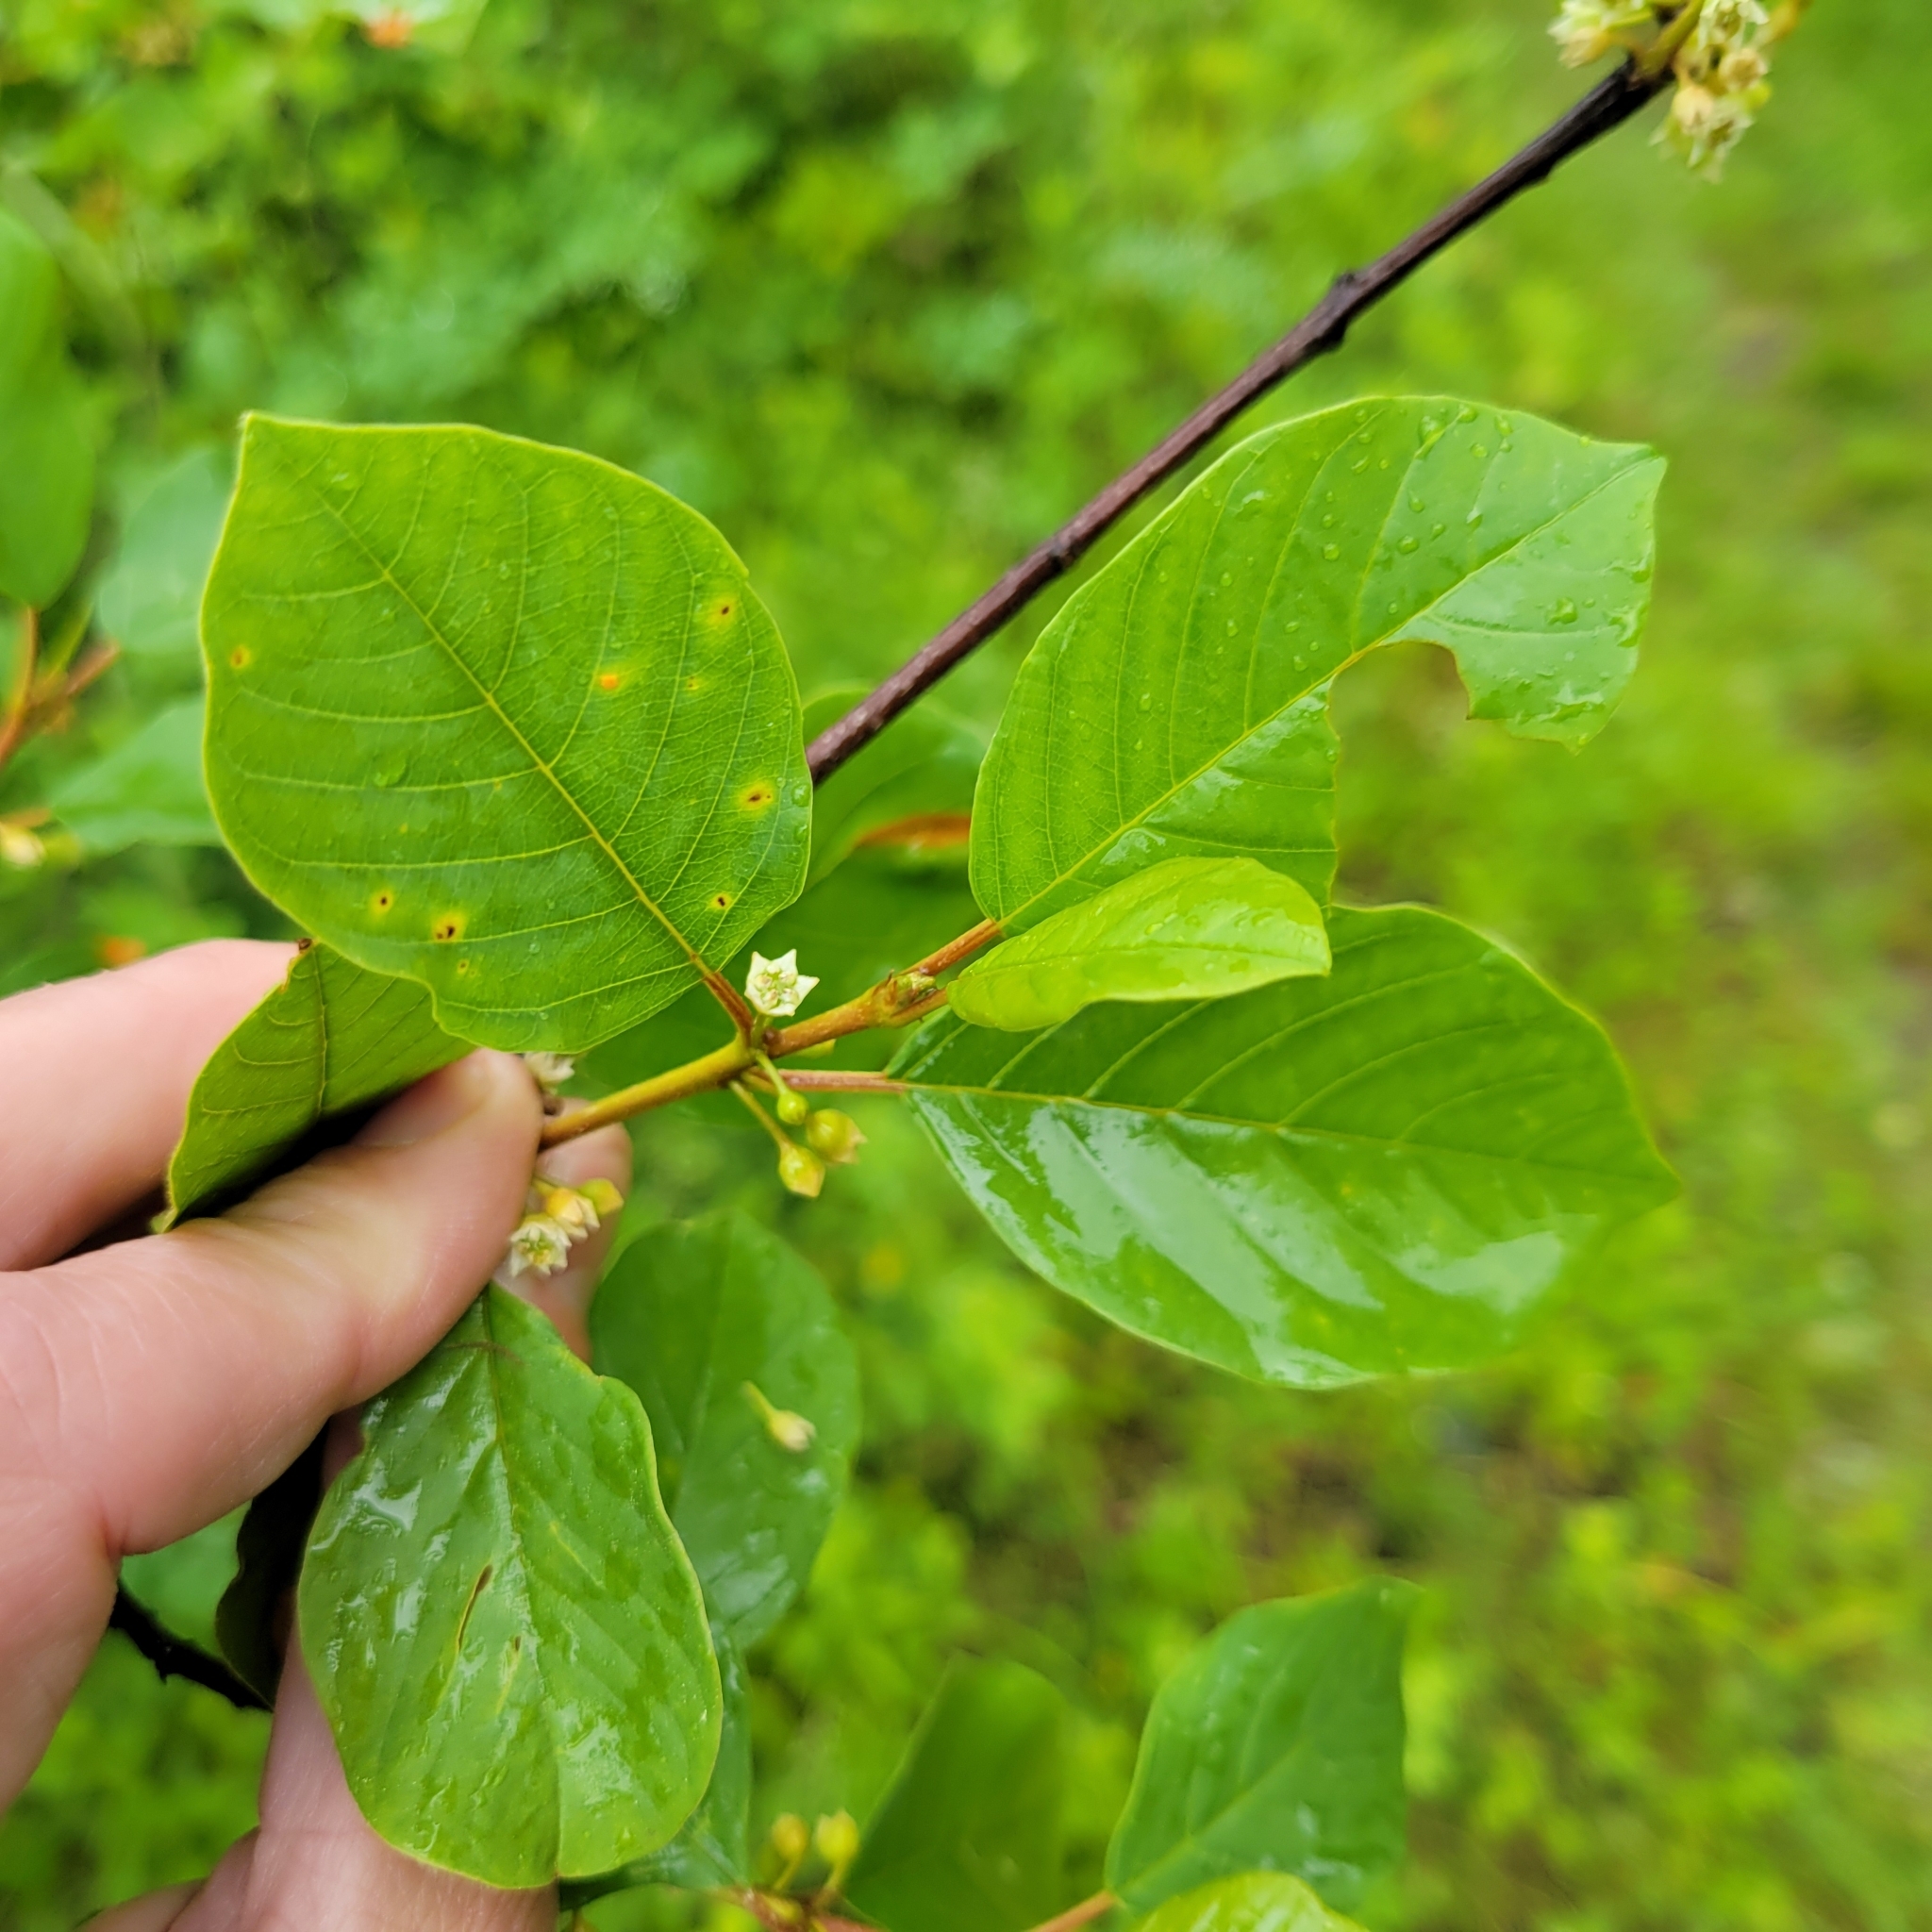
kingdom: Plantae
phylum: Tracheophyta
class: Magnoliopsida
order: Rosales
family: Rhamnaceae
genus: Frangula
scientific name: Frangula alnus
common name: Alder buckthorn
